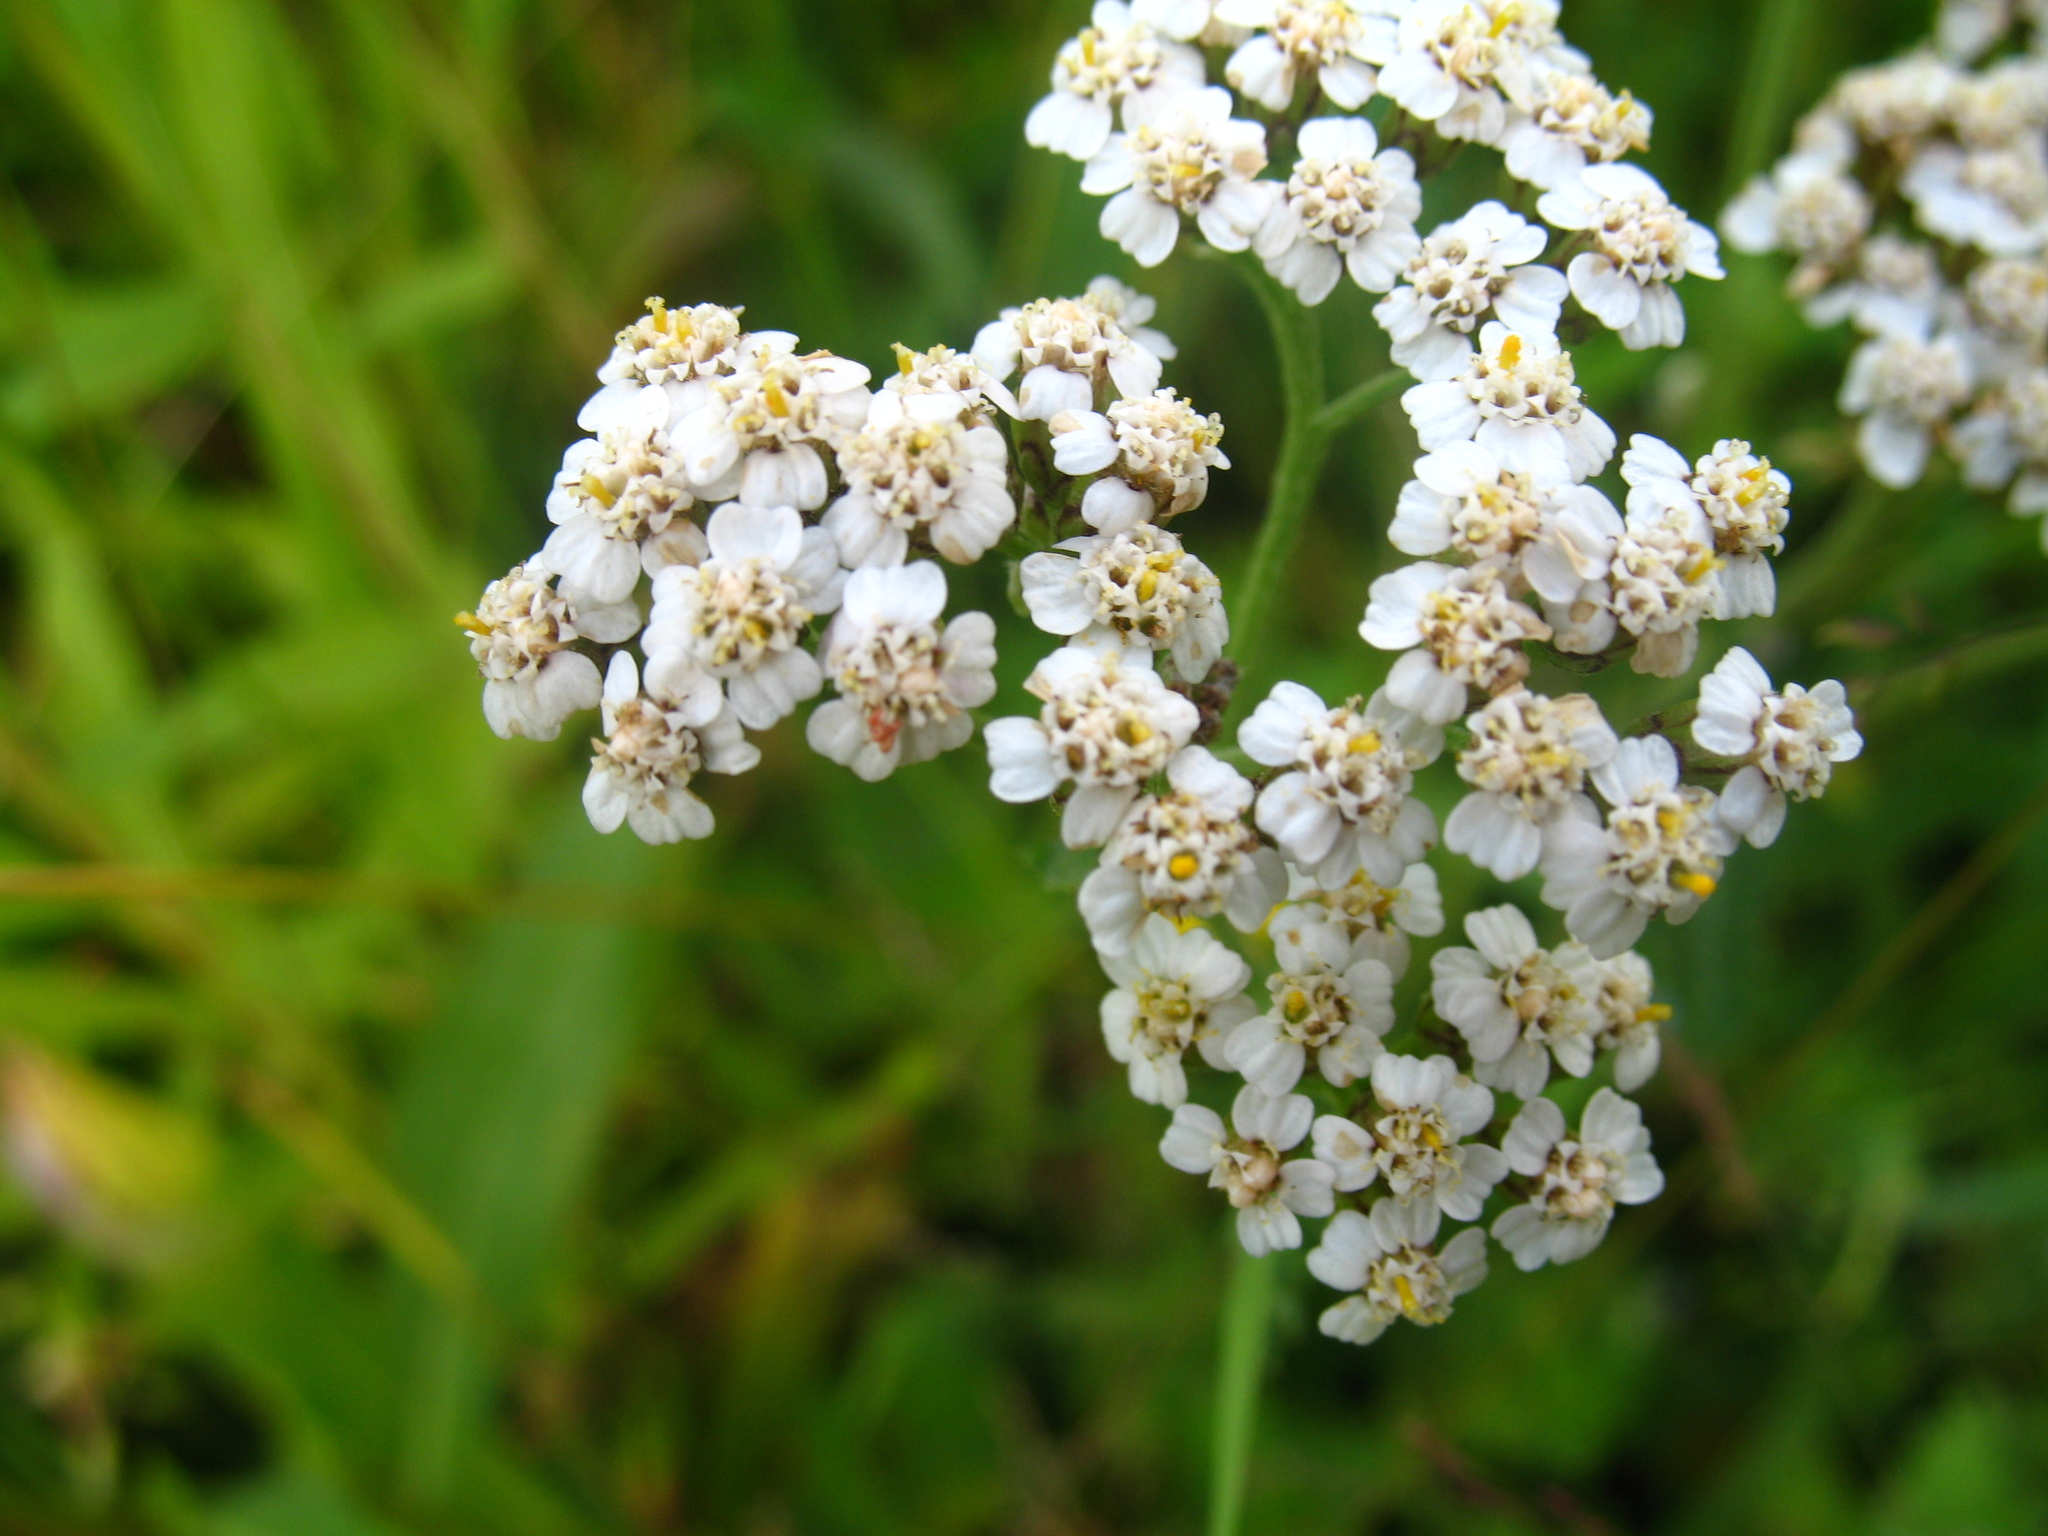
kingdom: Plantae
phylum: Tracheophyta
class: Magnoliopsida
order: Asterales
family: Asteraceae
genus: Achillea
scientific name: Achillea millefolium
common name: Yarrow
